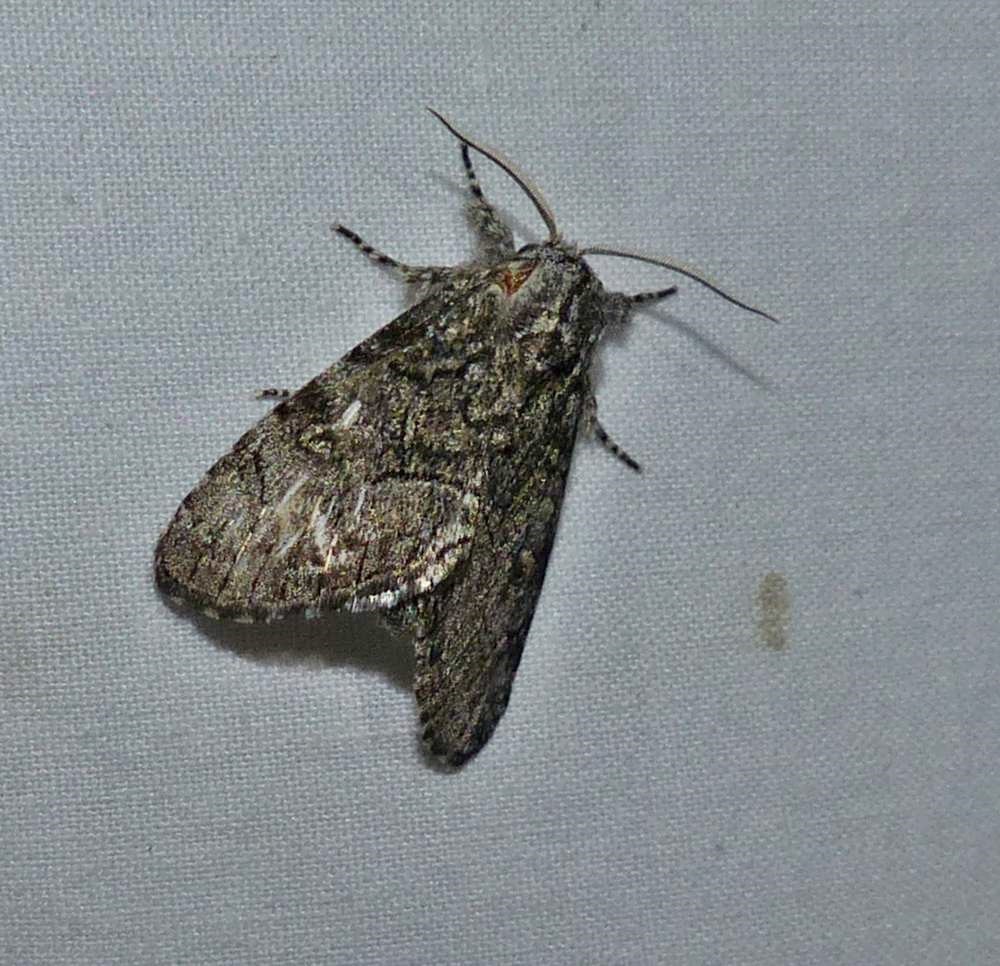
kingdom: Animalia
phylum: Arthropoda
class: Insecta
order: Lepidoptera
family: Noctuidae
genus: Raphia
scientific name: Raphia frater
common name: Brother
